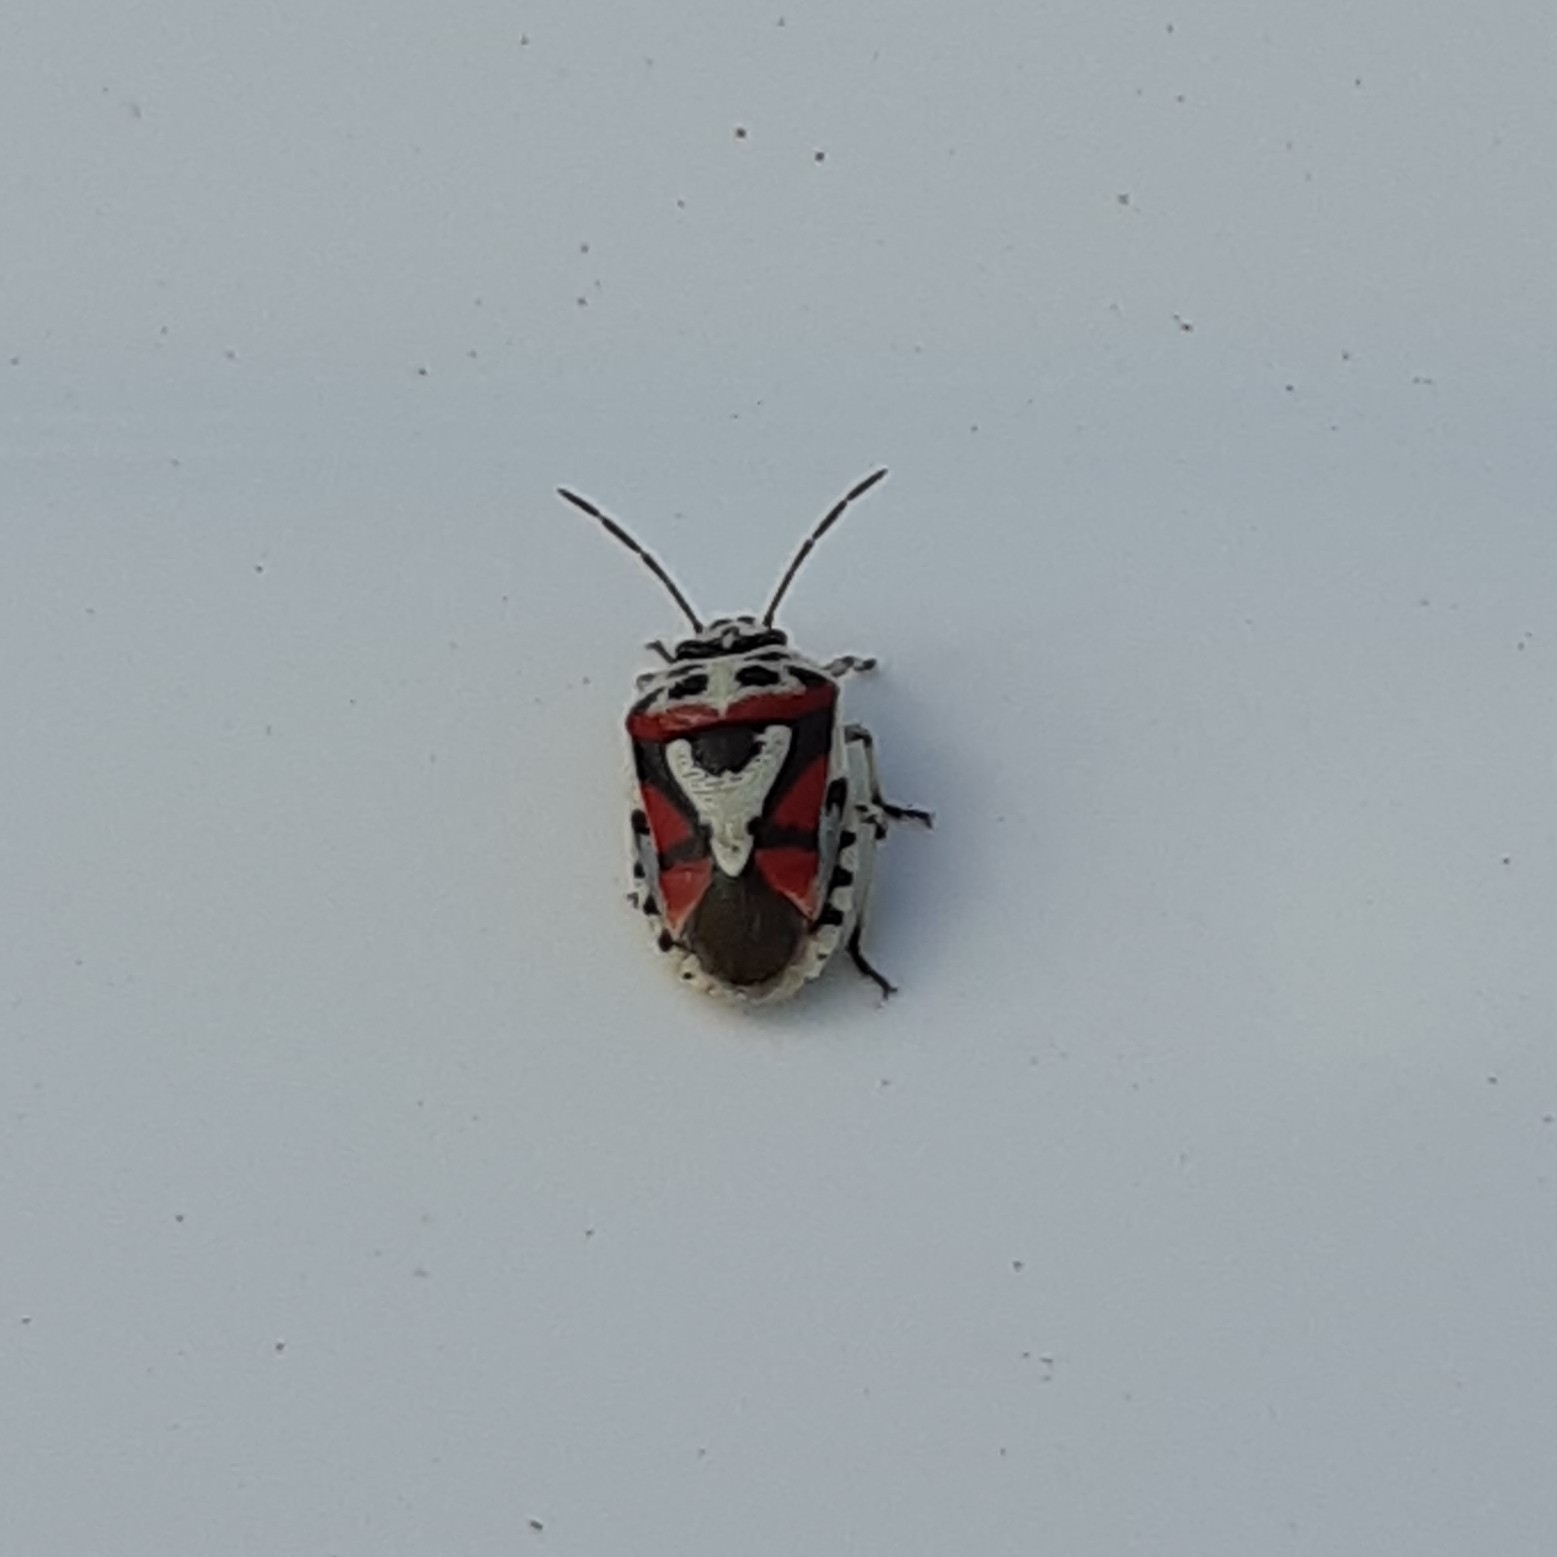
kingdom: Animalia
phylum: Arthropoda
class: Insecta
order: Hemiptera
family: Pentatomidae
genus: Eurydema
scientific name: Eurydema ornata
